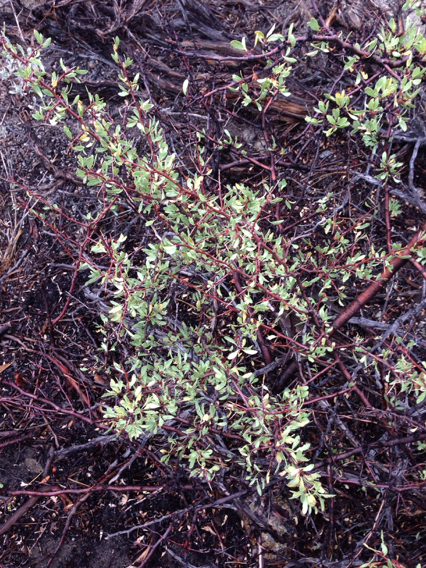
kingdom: Plantae
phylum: Tracheophyta
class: Magnoliopsida
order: Rosales
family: Rosaceae
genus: Prunus
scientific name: Prunus andersonii
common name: Desert peach
